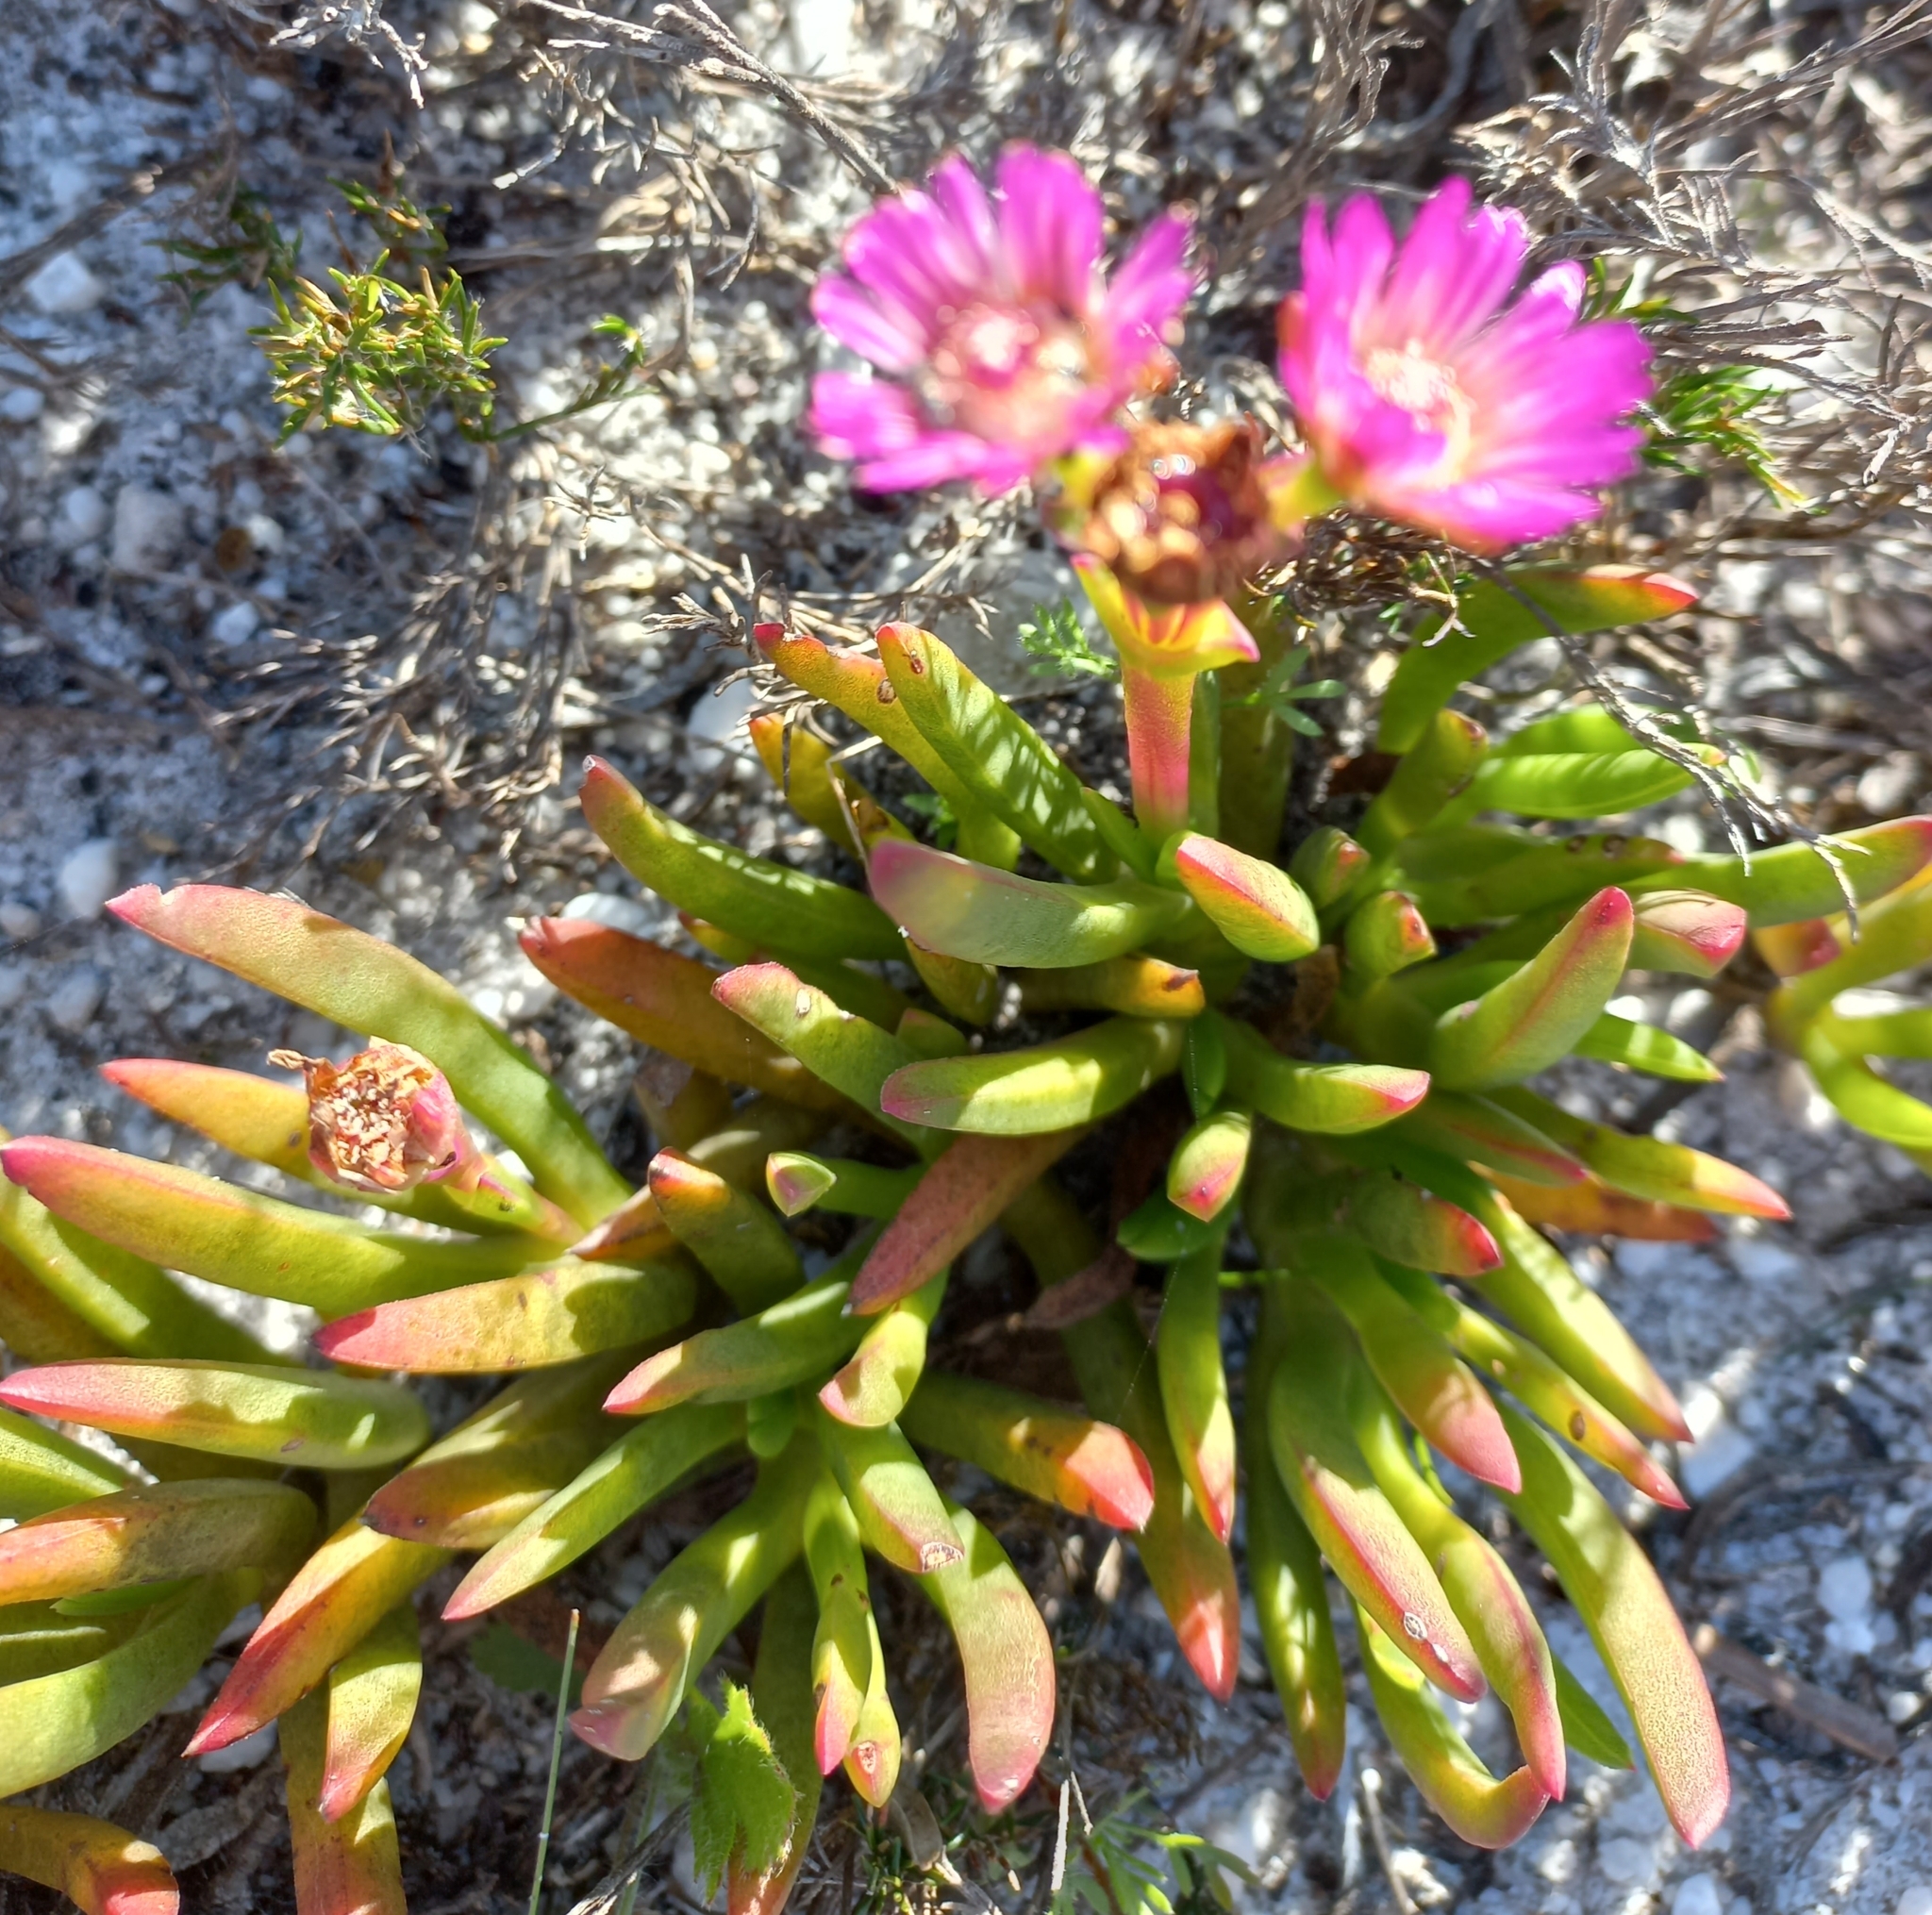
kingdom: Plantae
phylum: Tracheophyta
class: Magnoliopsida
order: Caryophyllales
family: Aizoaceae
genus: Ruschia
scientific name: Ruschia sarmentosa
